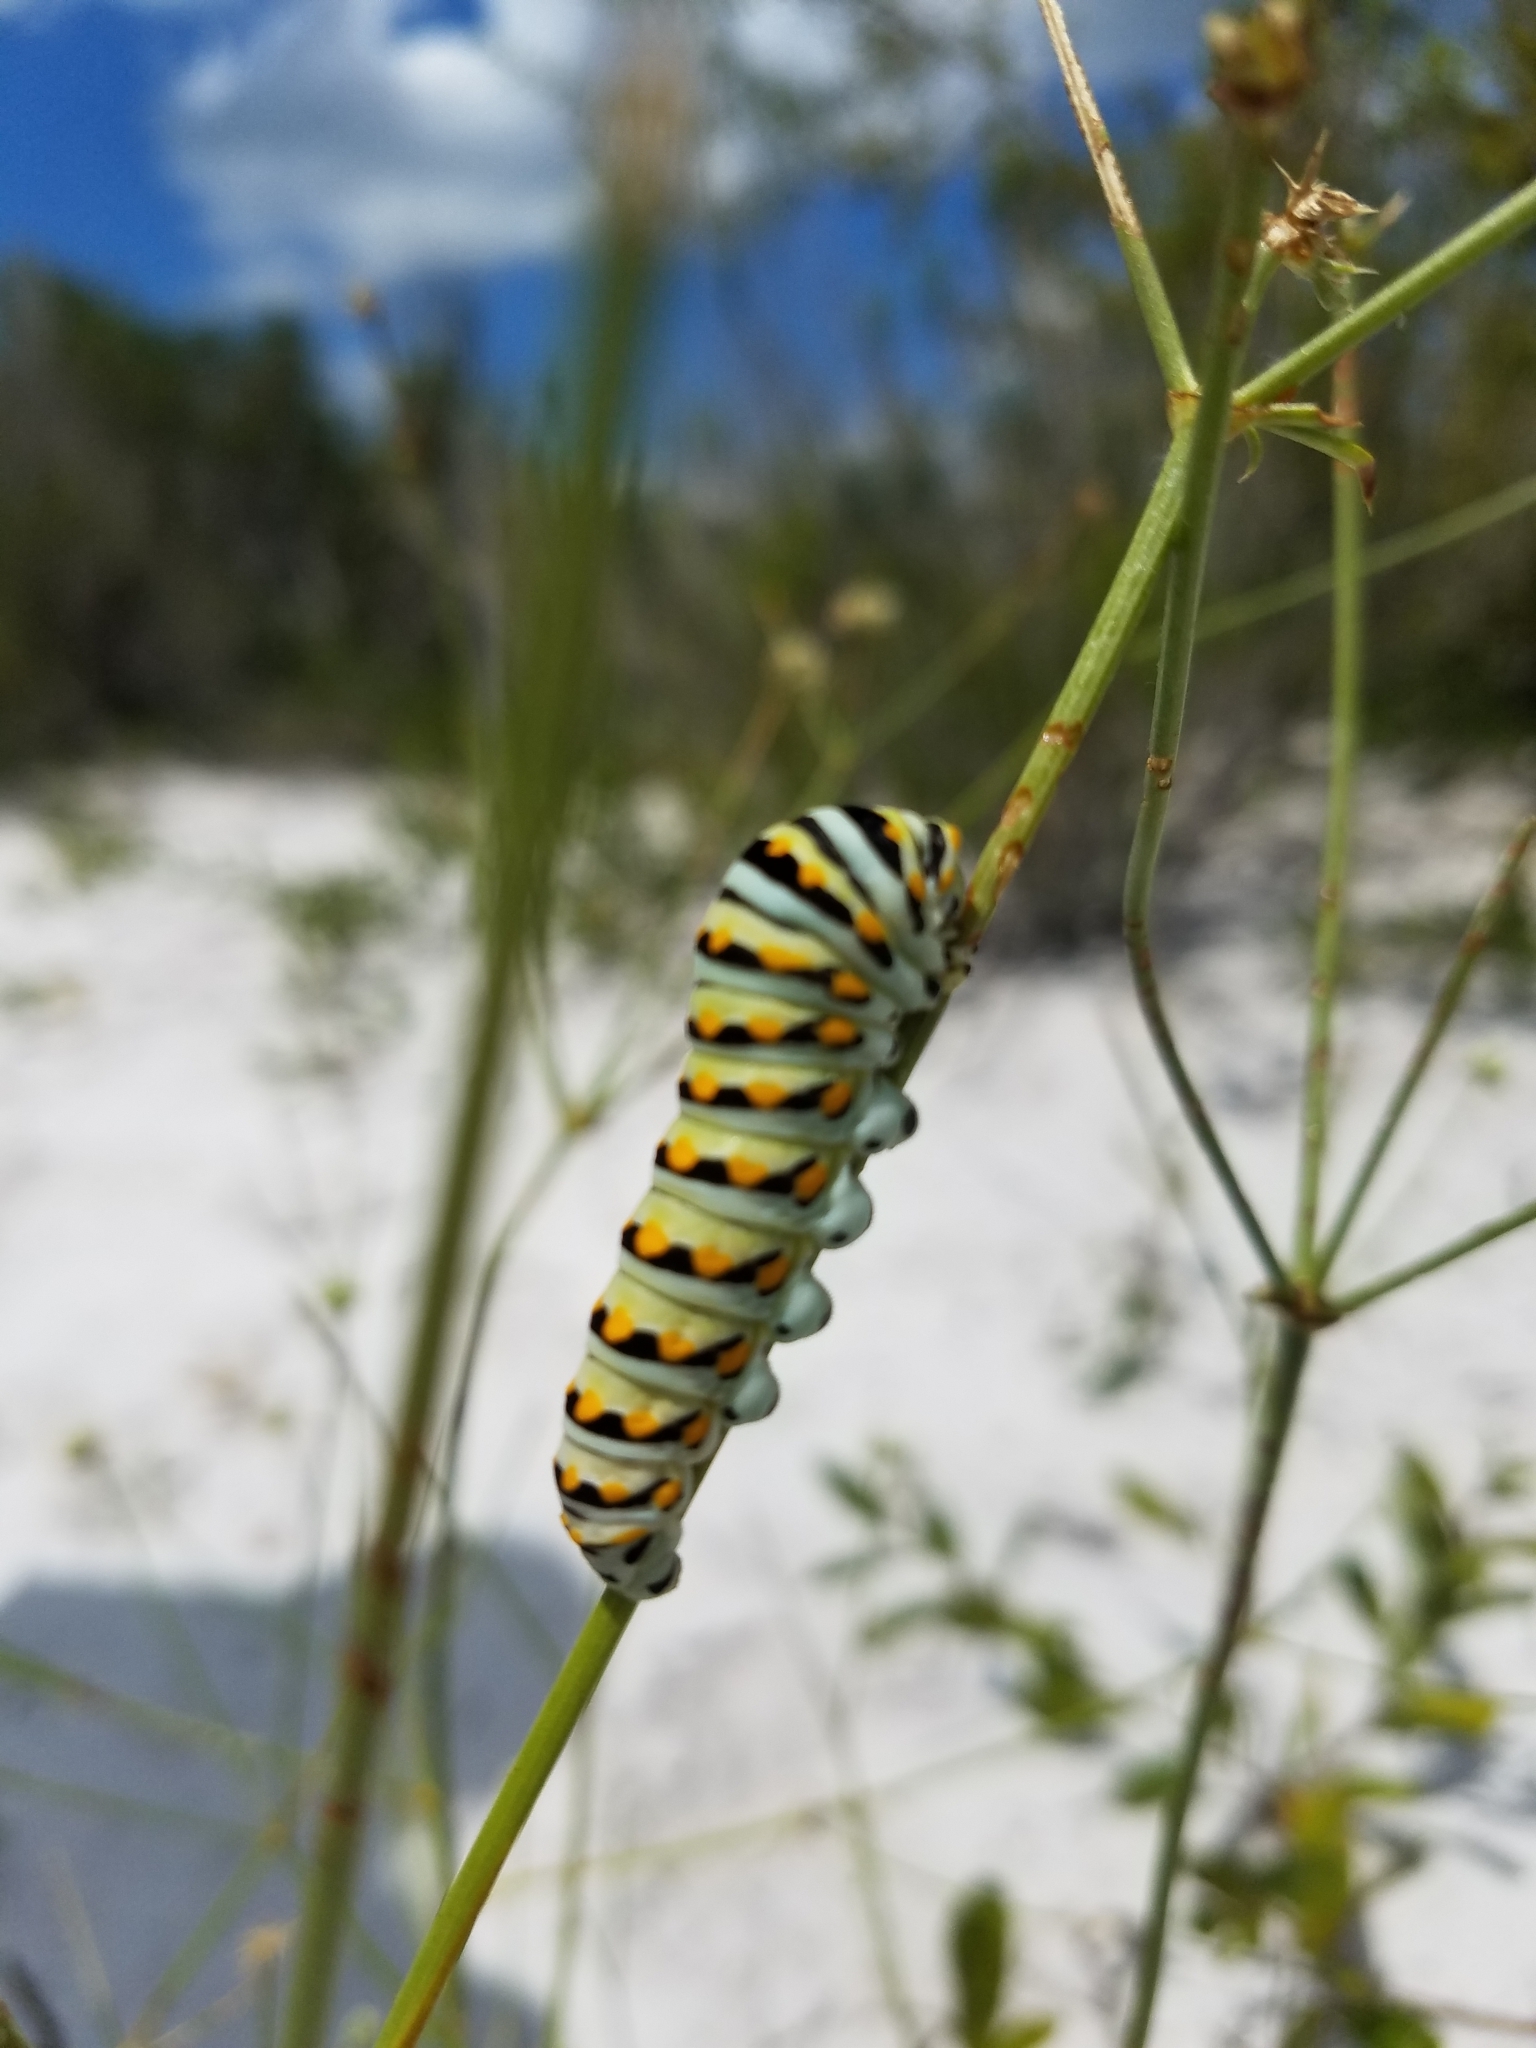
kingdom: Animalia
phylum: Arthropoda
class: Insecta
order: Lepidoptera
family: Papilionidae
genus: Papilio
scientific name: Papilio polyxenes
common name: Black swallowtail
